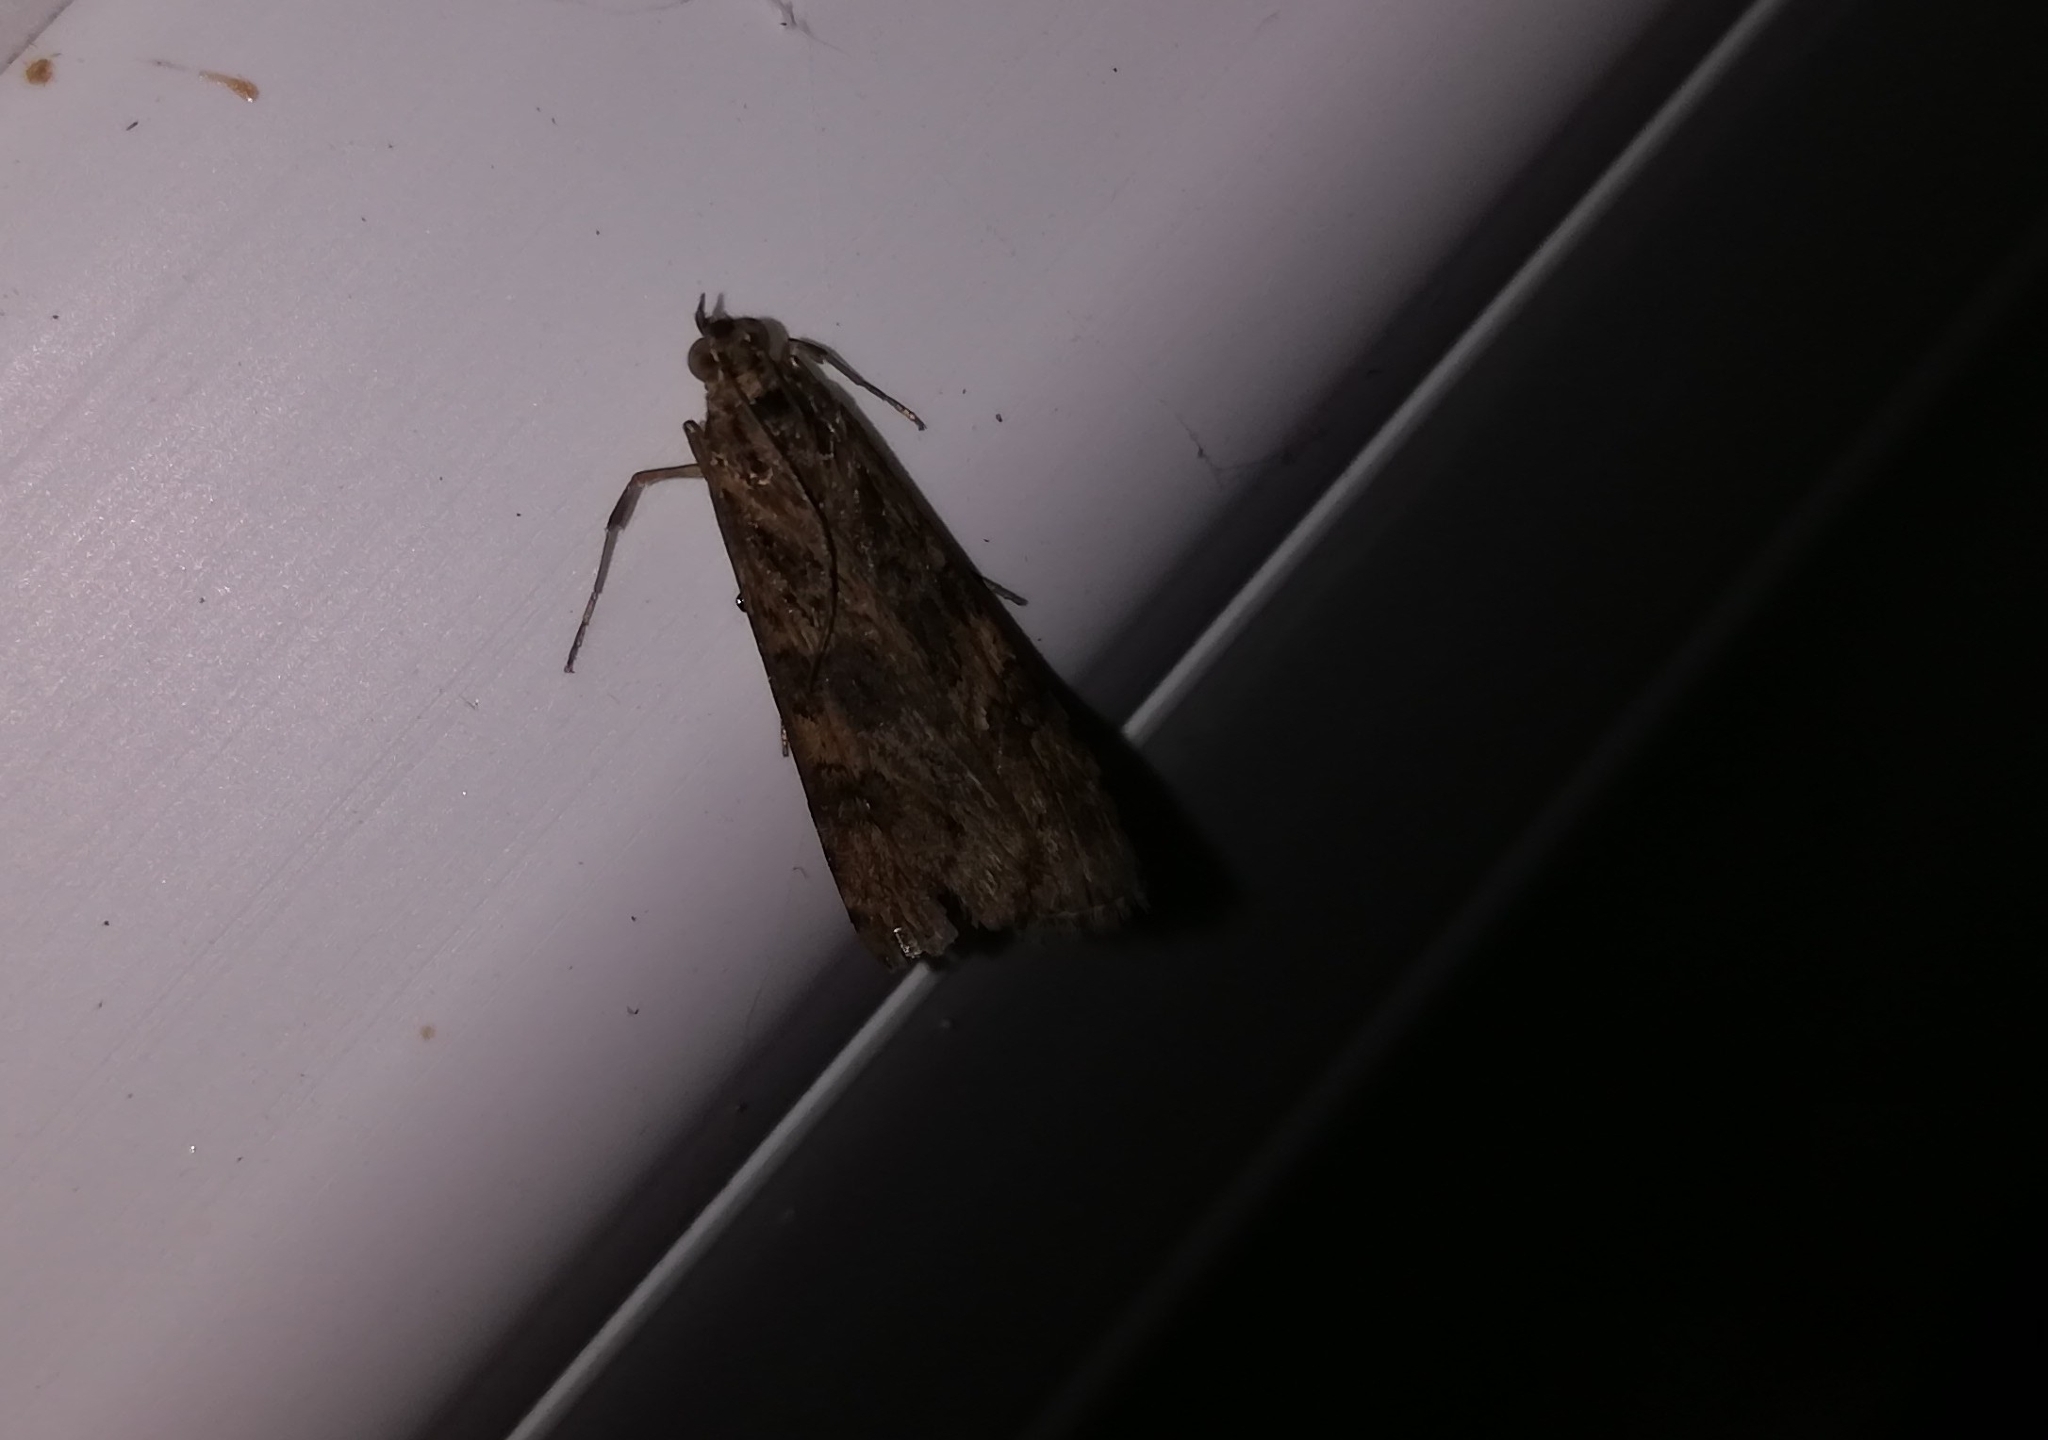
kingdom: Animalia
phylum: Arthropoda
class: Insecta
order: Lepidoptera
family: Crambidae
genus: Nomophila
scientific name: Nomophila noctuella
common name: Rush veneer
